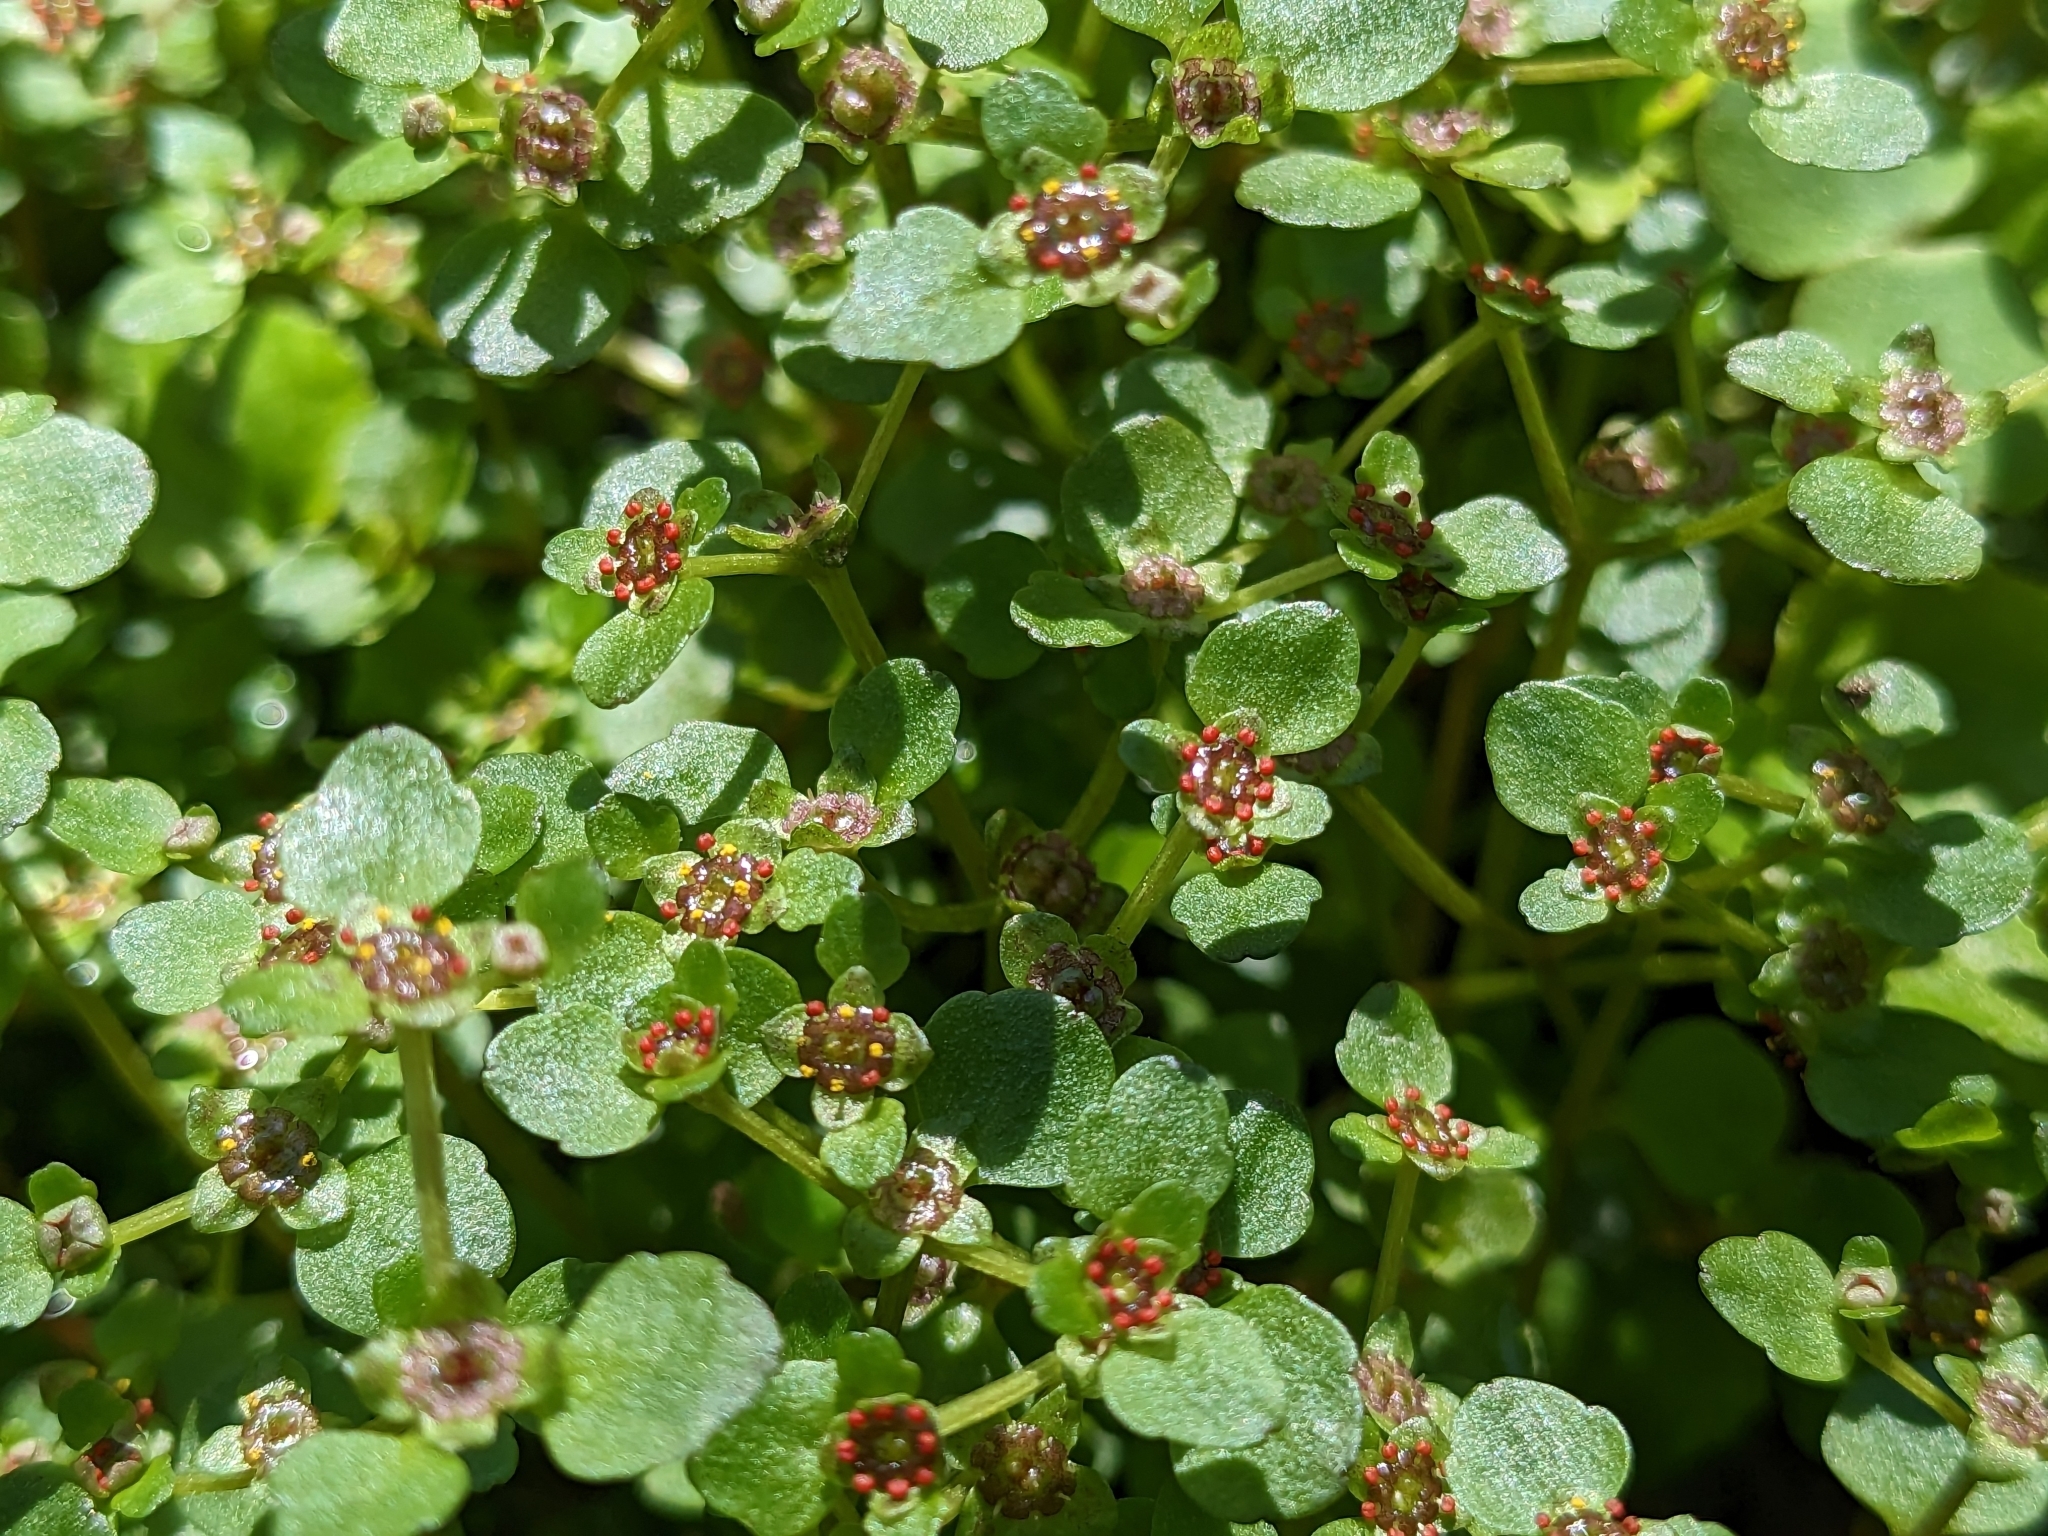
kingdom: Plantae
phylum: Tracheophyta
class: Magnoliopsida
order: Saxifragales
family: Saxifragaceae
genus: Chrysosplenium
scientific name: Chrysosplenium americanum
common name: American golden-saxifrage
